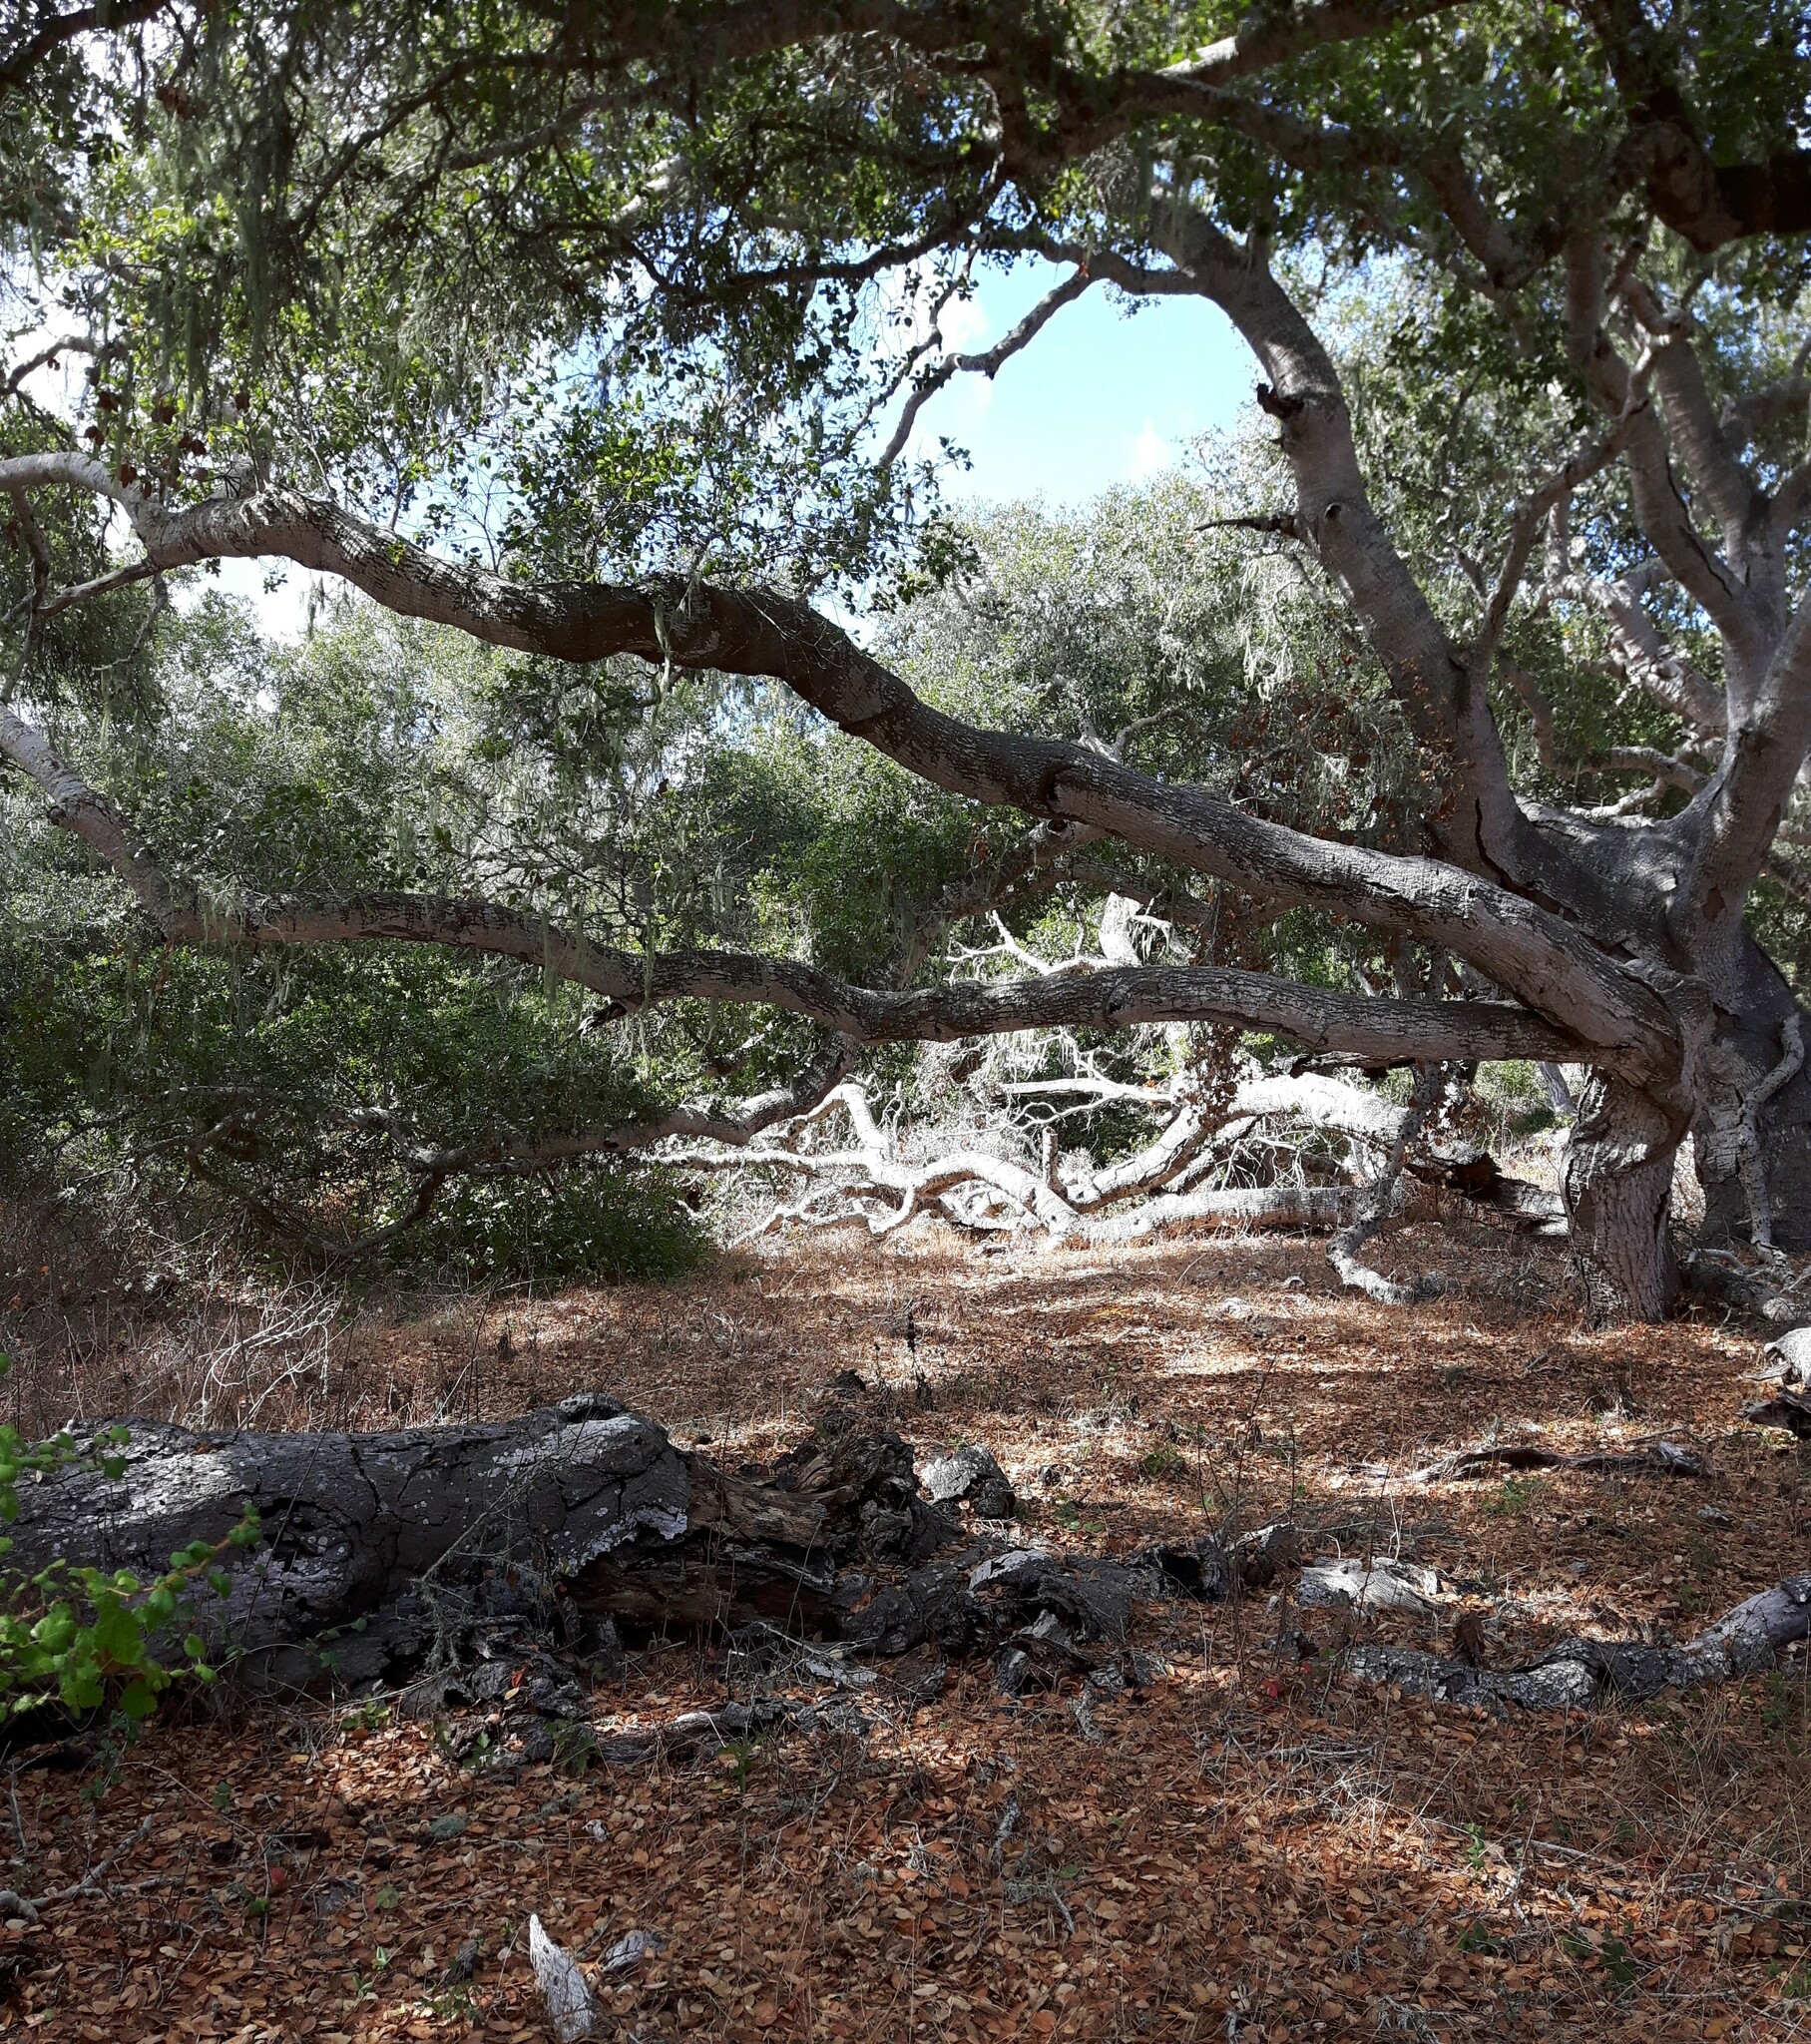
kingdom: Plantae
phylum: Tracheophyta
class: Magnoliopsida
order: Fagales
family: Fagaceae
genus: Quercus
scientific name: Quercus agrifolia
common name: California live oak
